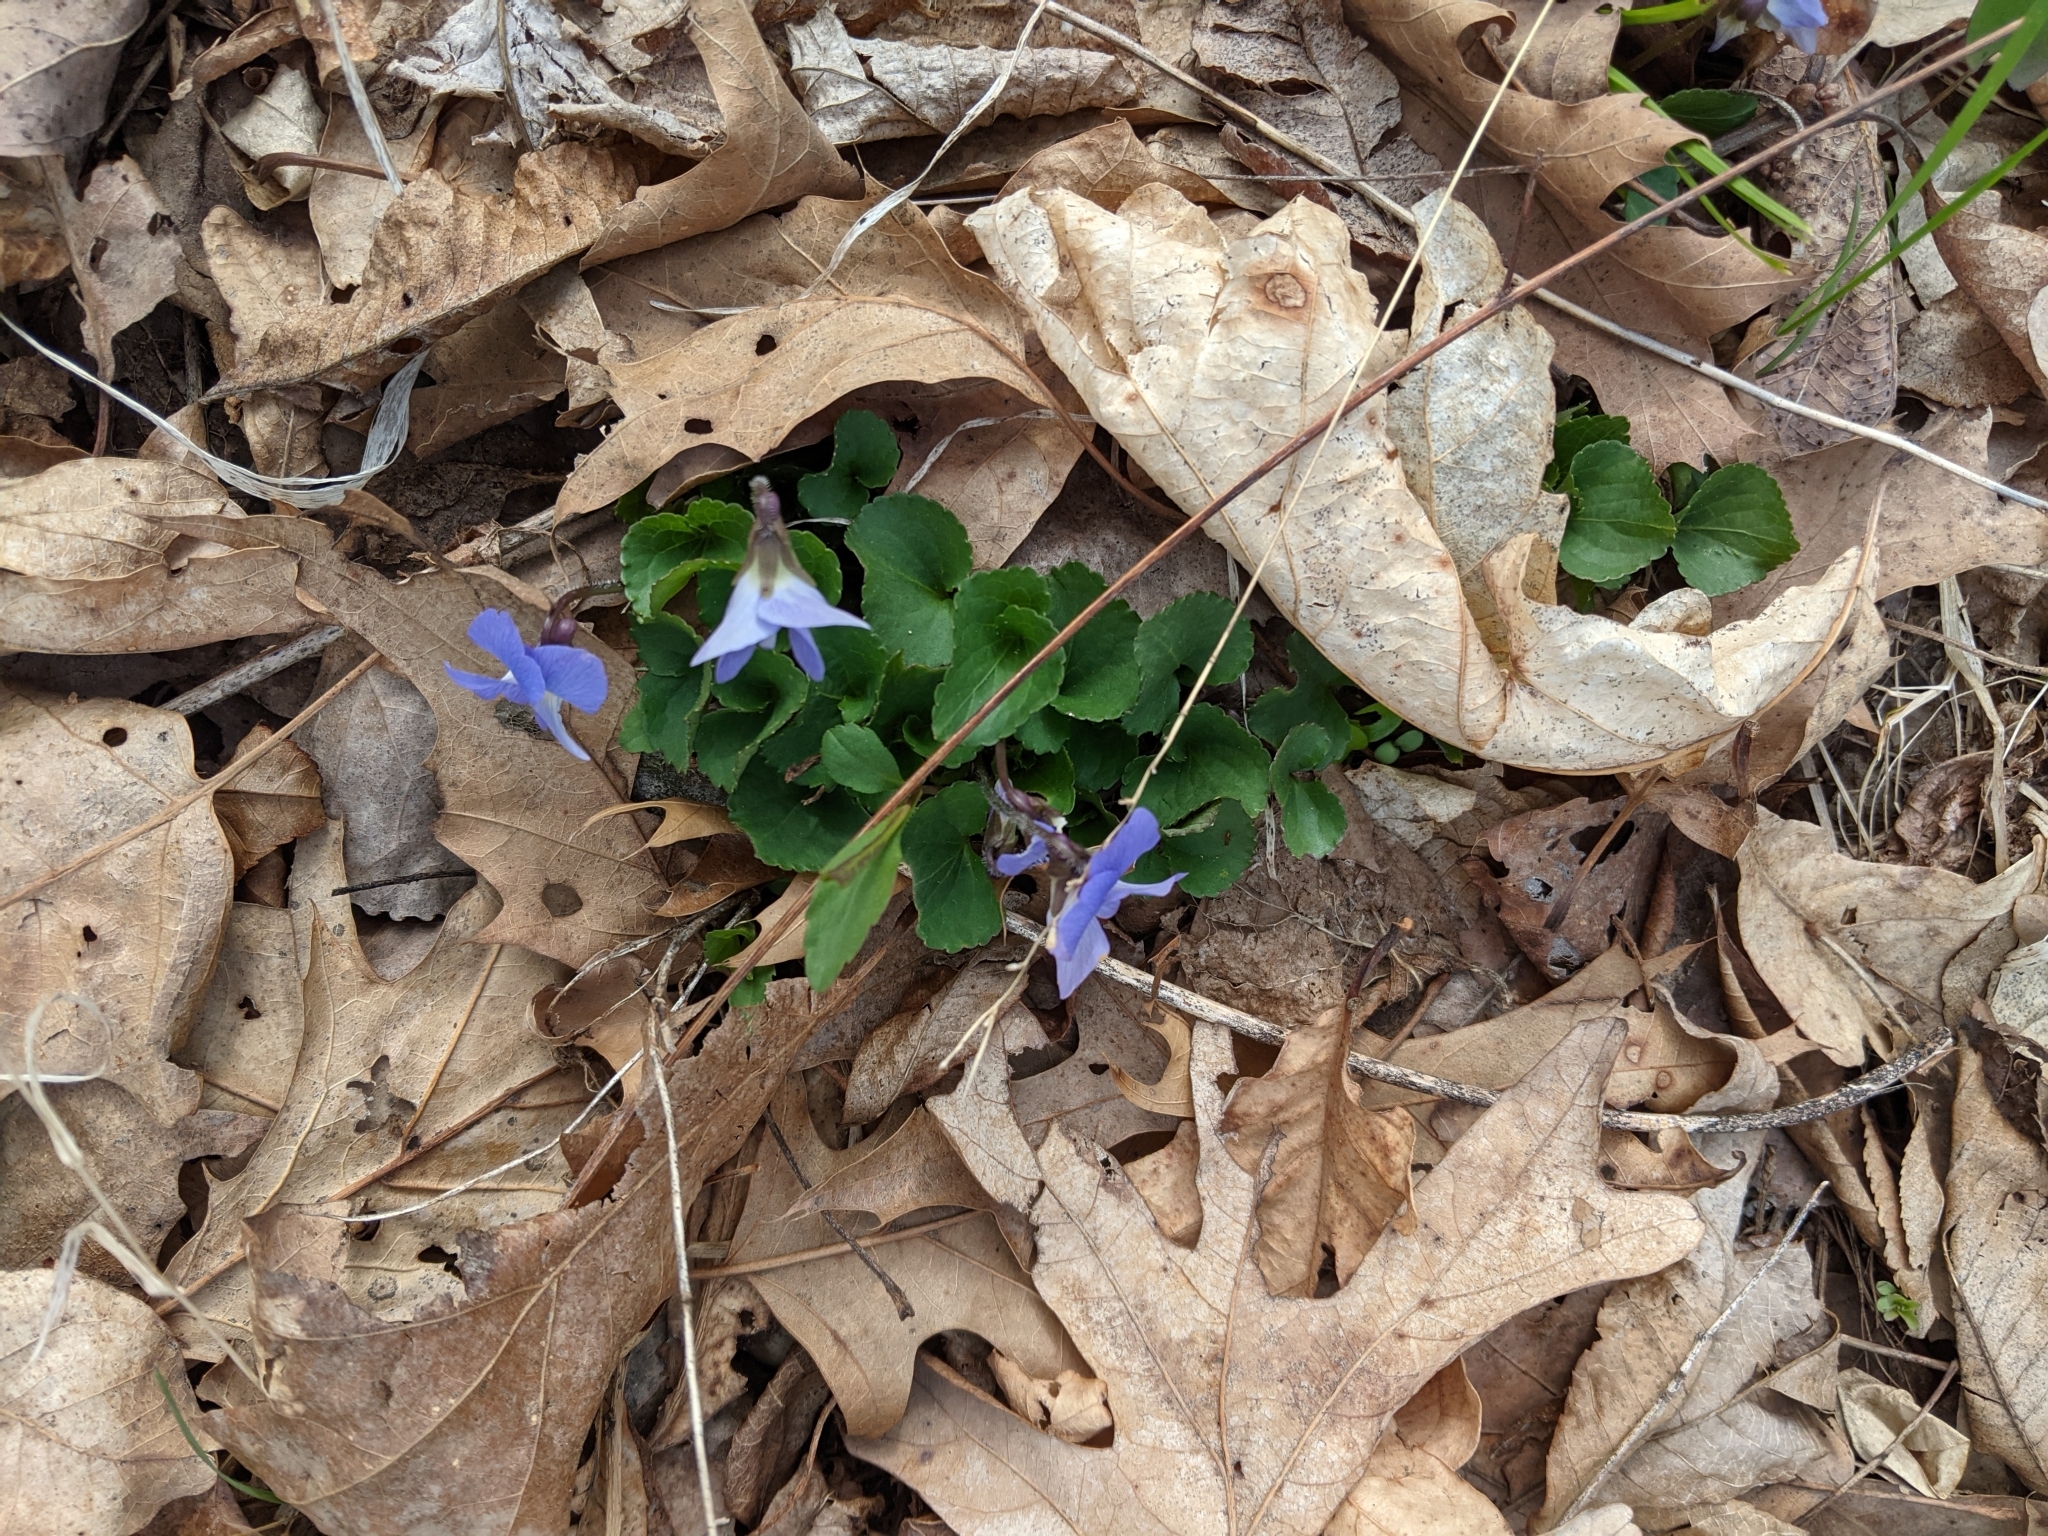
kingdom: Plantae
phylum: Tracheophyta
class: Magnoliopsida
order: Malpighiales
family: Violaceae
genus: Viola
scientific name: Viola sororia
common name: Dooryard violet
